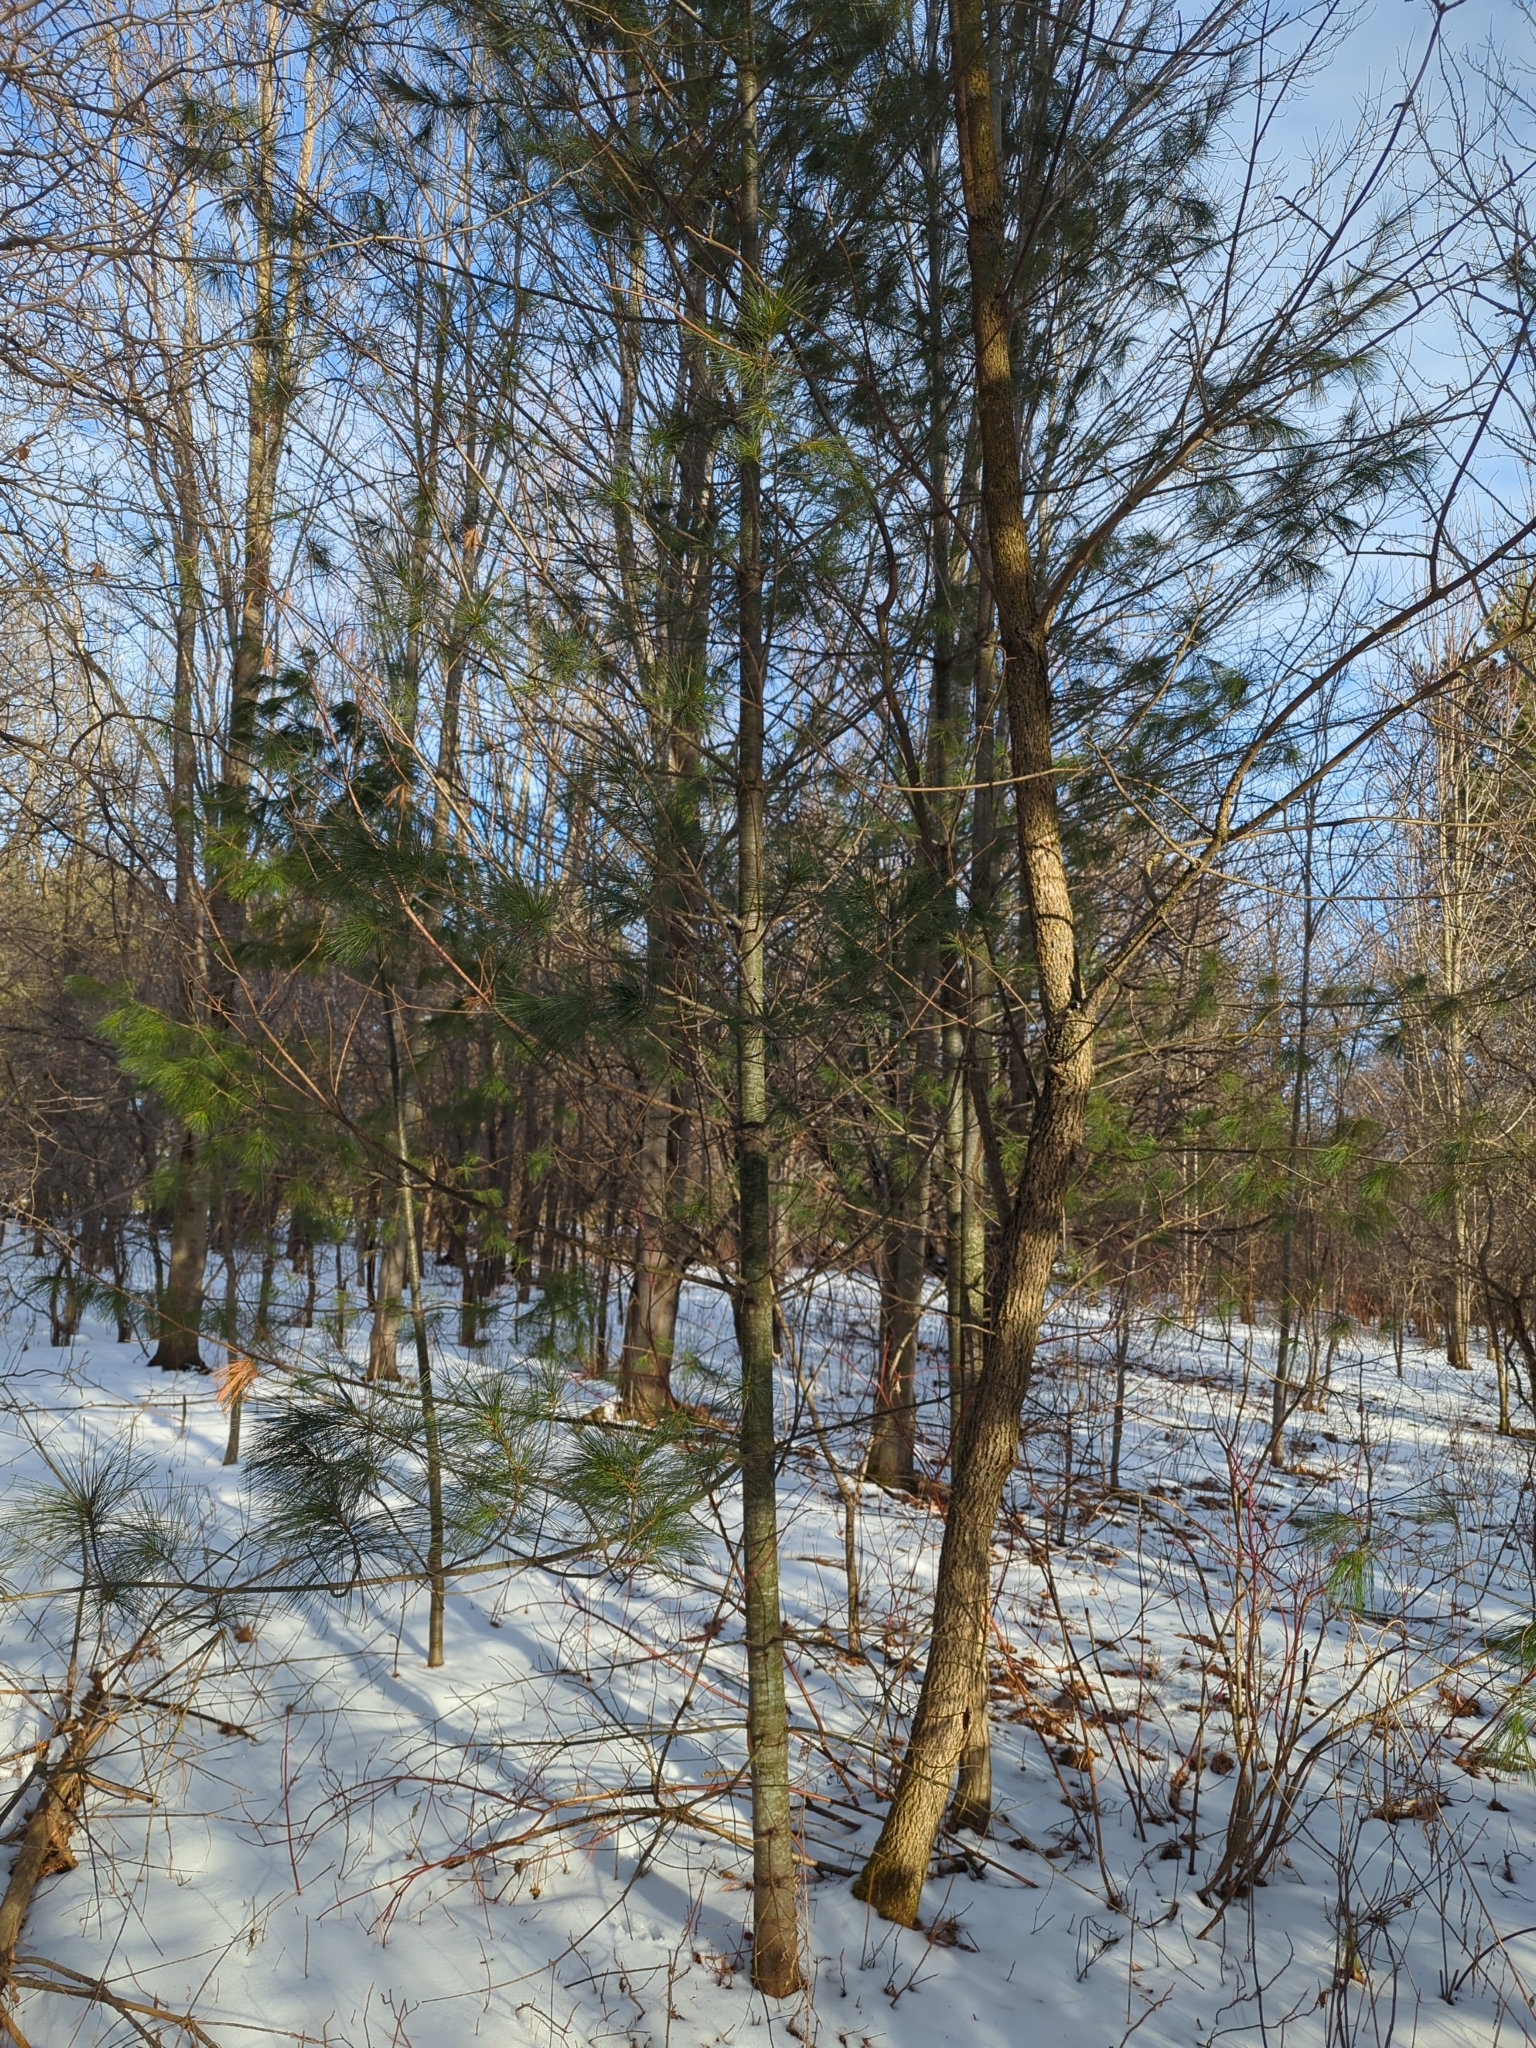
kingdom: Plantae
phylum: Tracheophyta
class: Pinopsida
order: Pinales
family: Pinaceae
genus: Pinus
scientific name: Pinus strobus
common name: Weymouth pine
